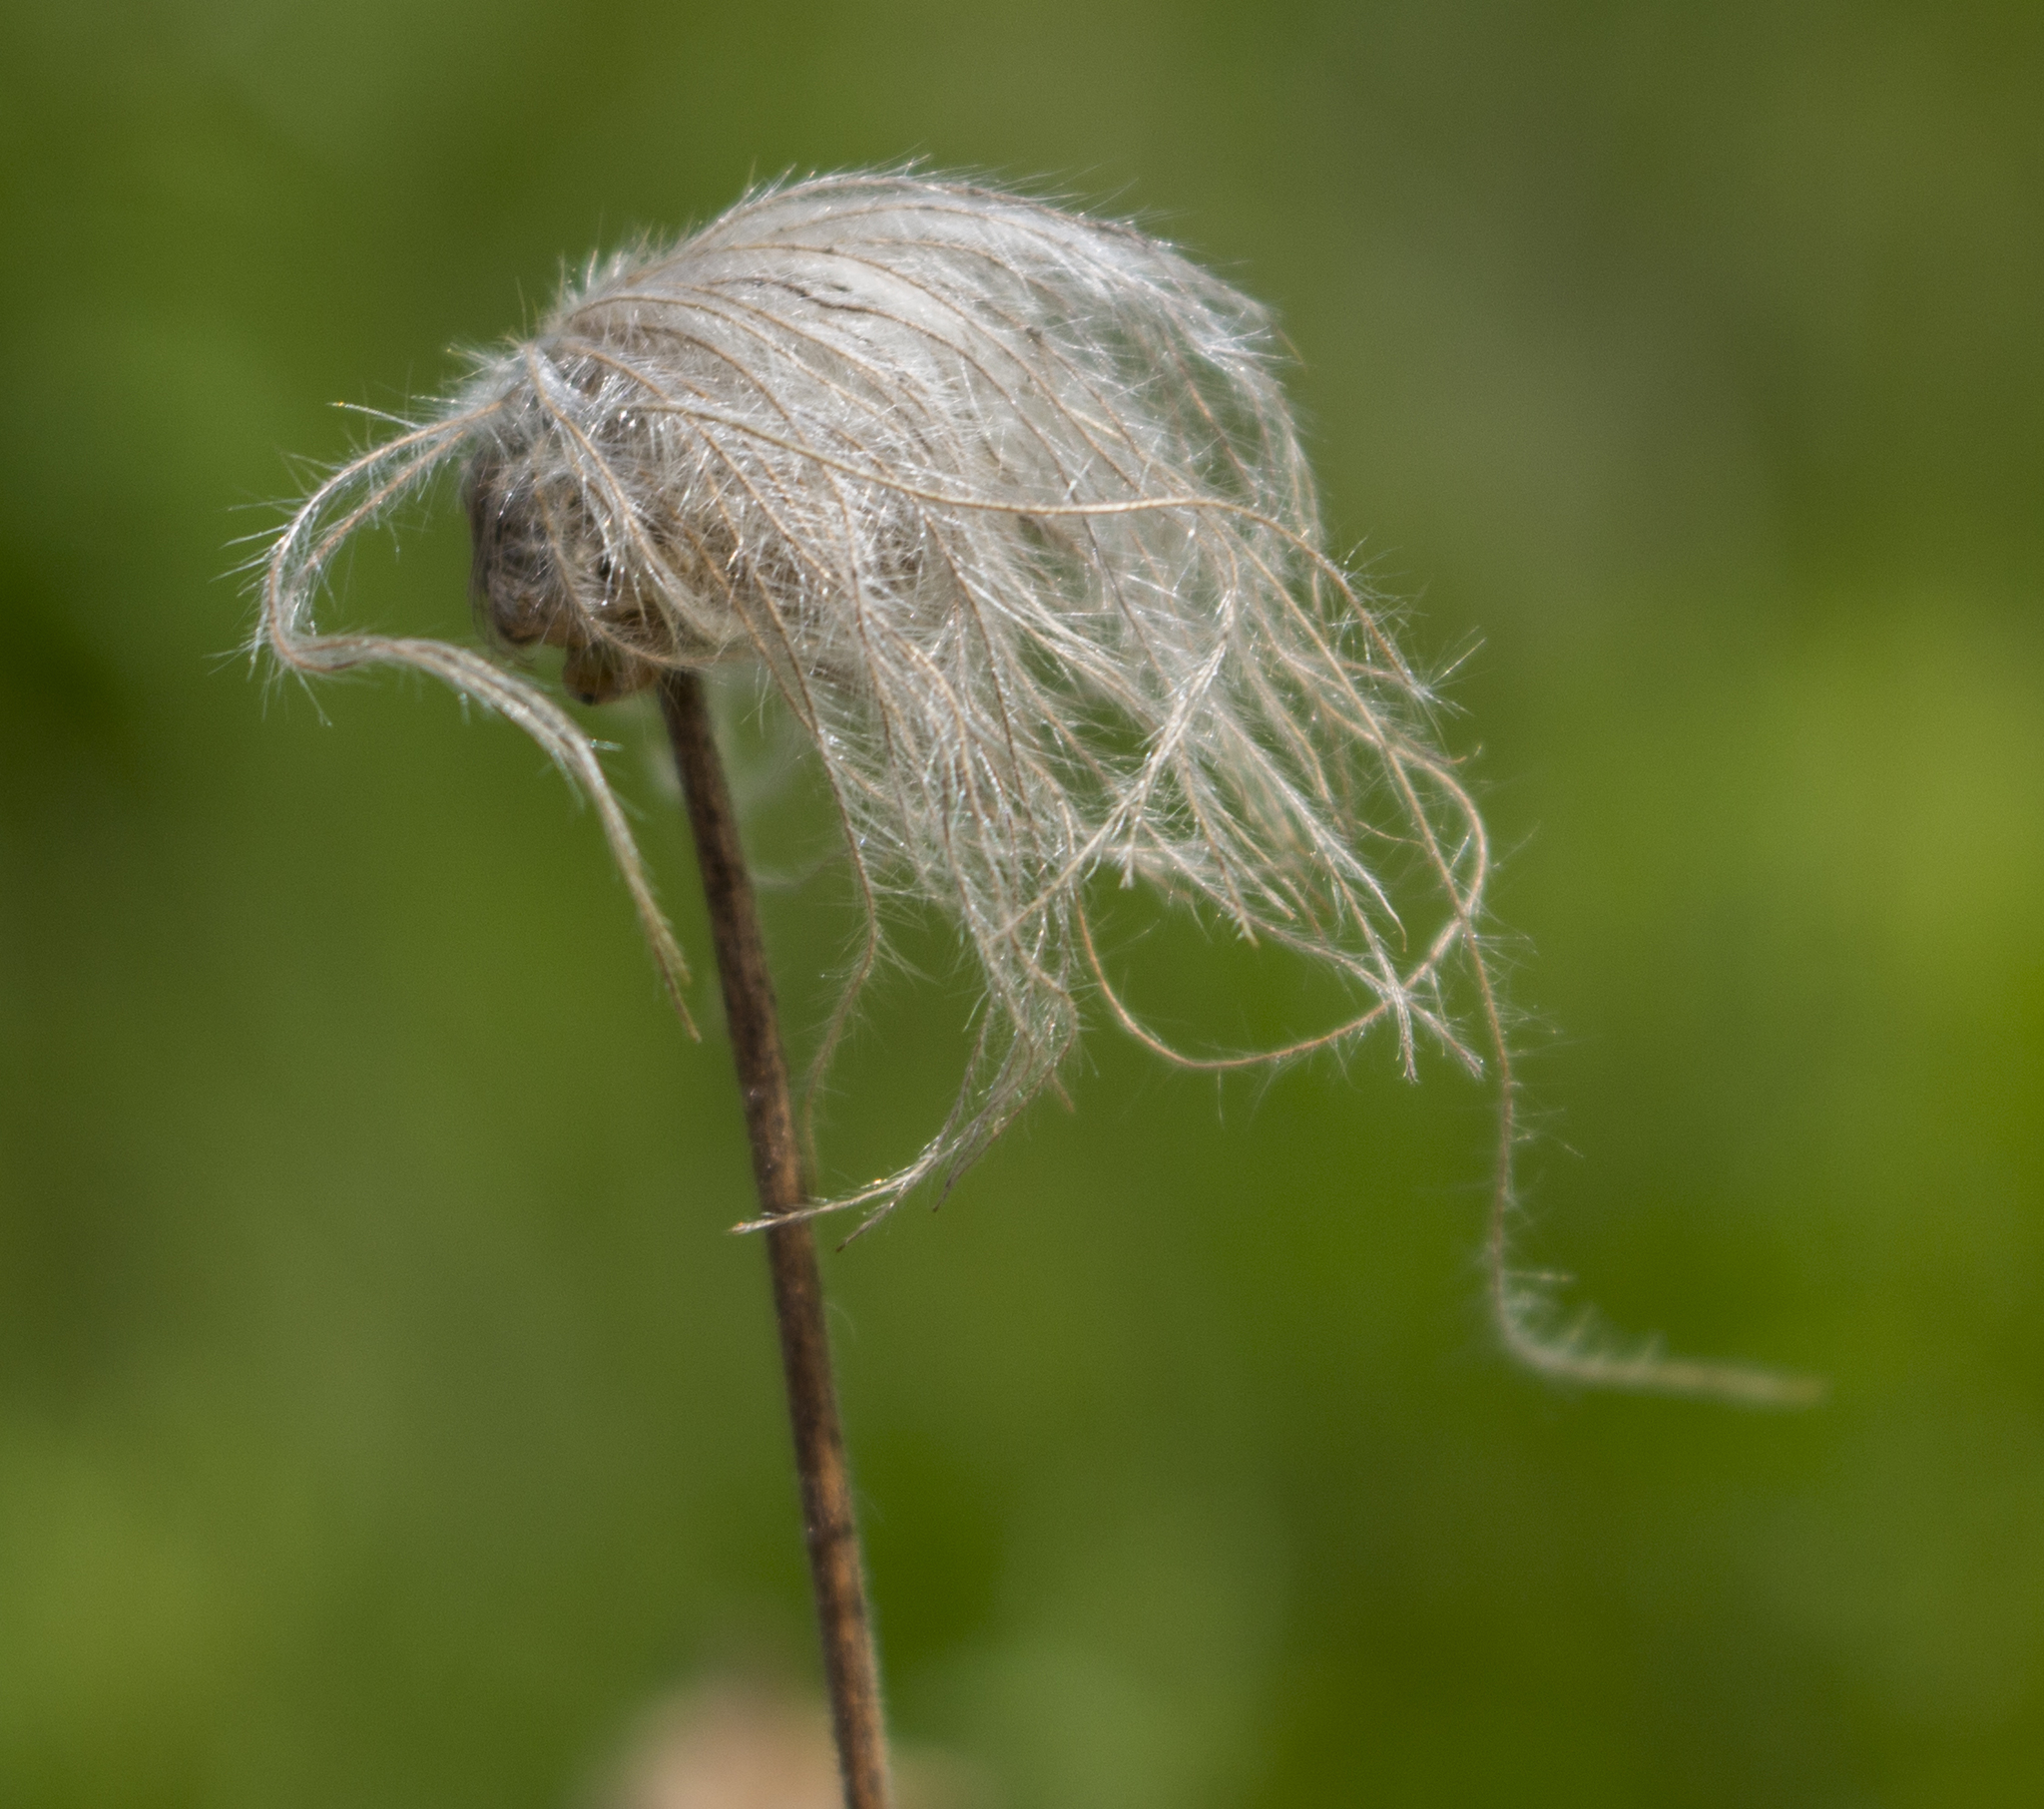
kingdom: Plantae
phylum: Tracheophyta
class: Magnoliopsida
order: Rosales
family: Rosaceae
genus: Geum
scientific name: Geum triflorum
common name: Old man's whiskers
